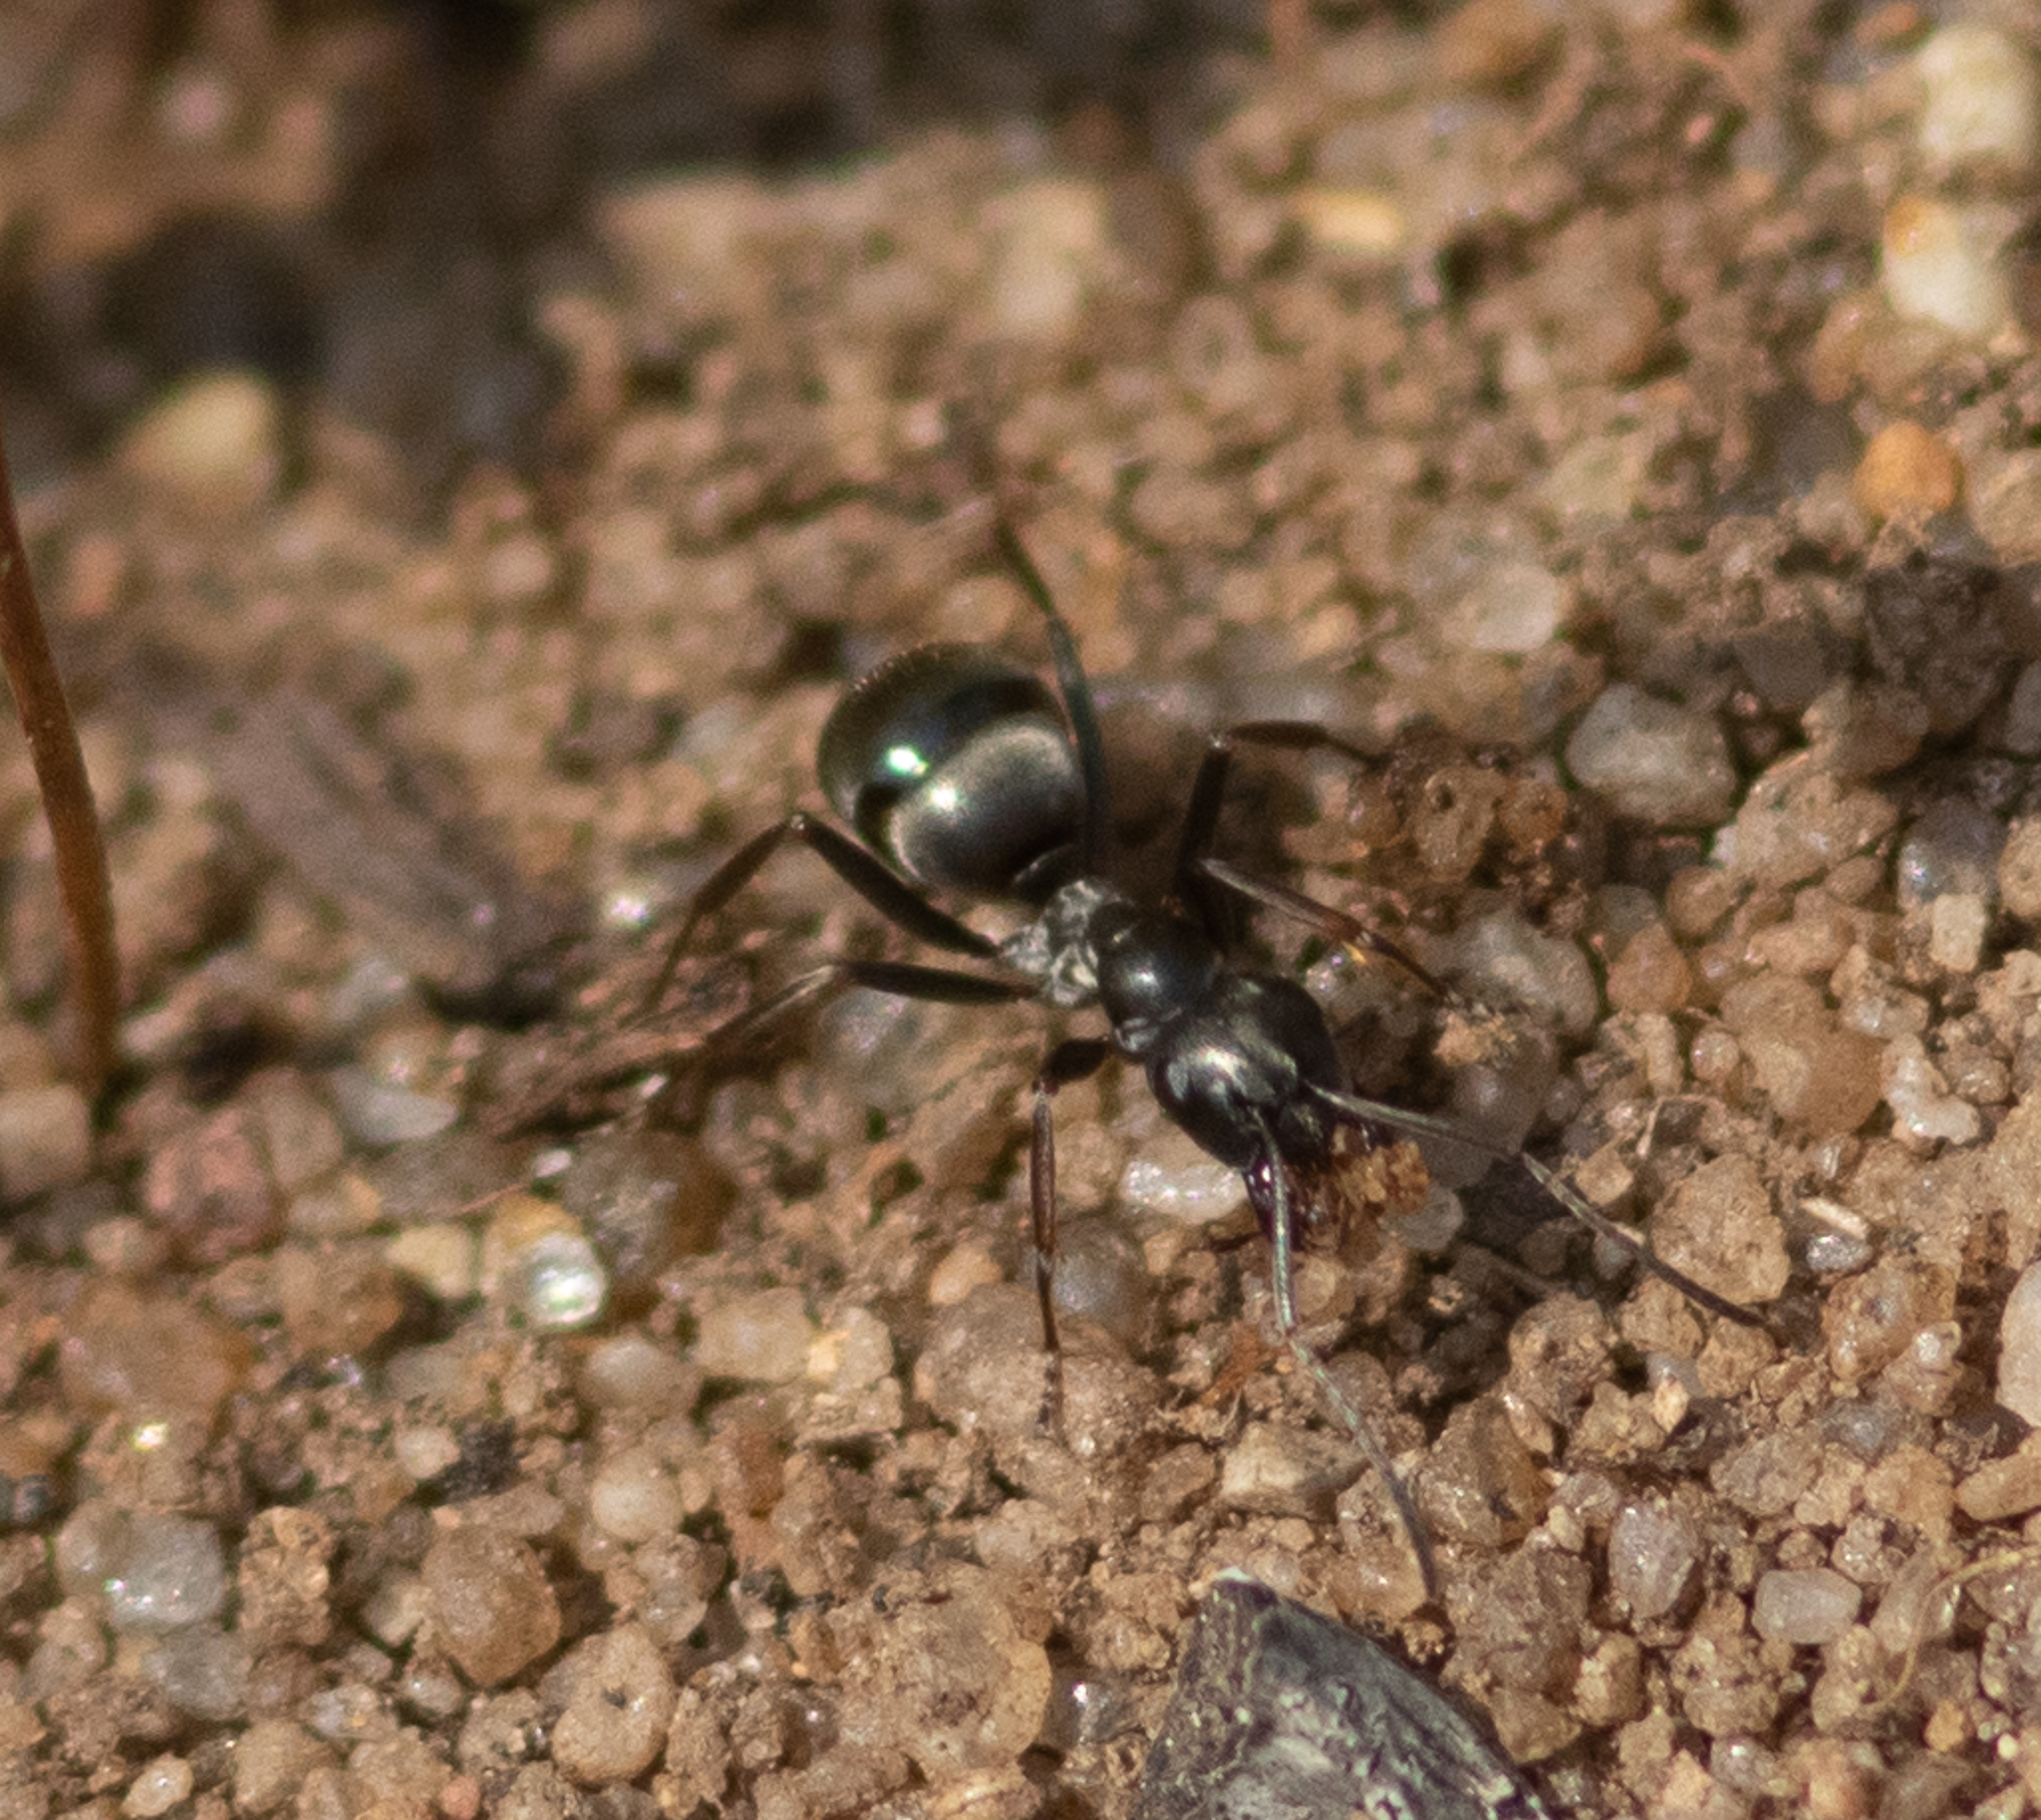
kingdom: Animalia
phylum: Arthropoda
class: Insecta
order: Hymenoptera
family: Formicidae
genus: Formica
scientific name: Formica subsericea
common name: Silky field ant
